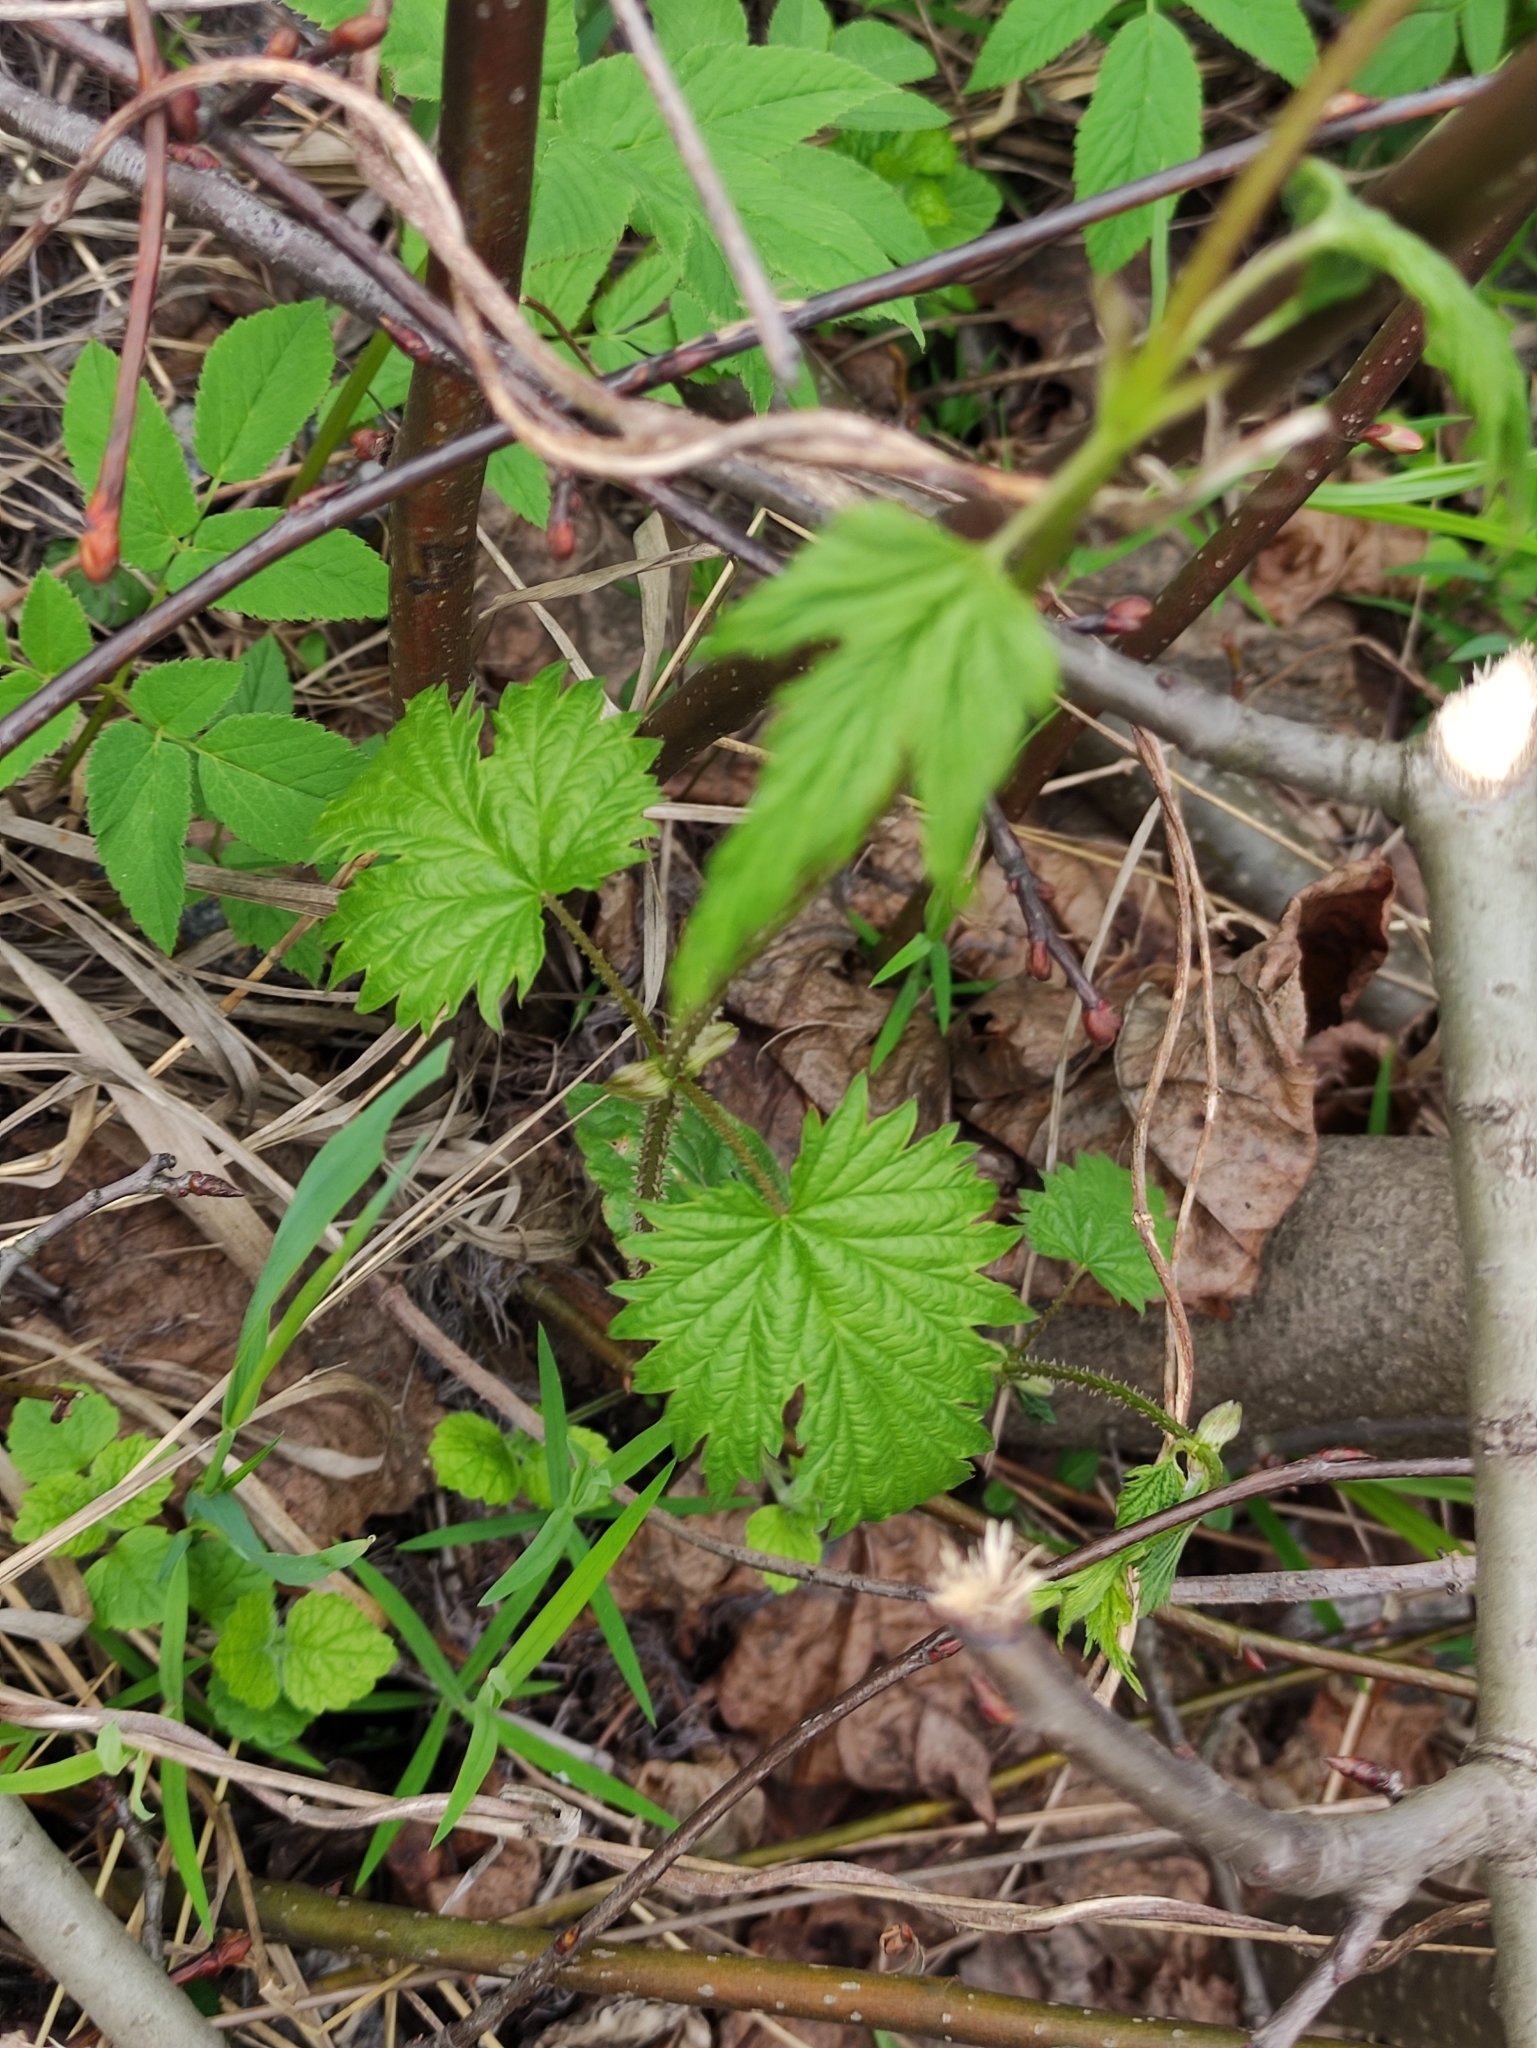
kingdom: Plantae
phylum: Tracheophyta
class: Magnoliopsida
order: Rosales
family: Cannabaceae
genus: Humulus
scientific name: Humulus lupulus
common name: Hop
